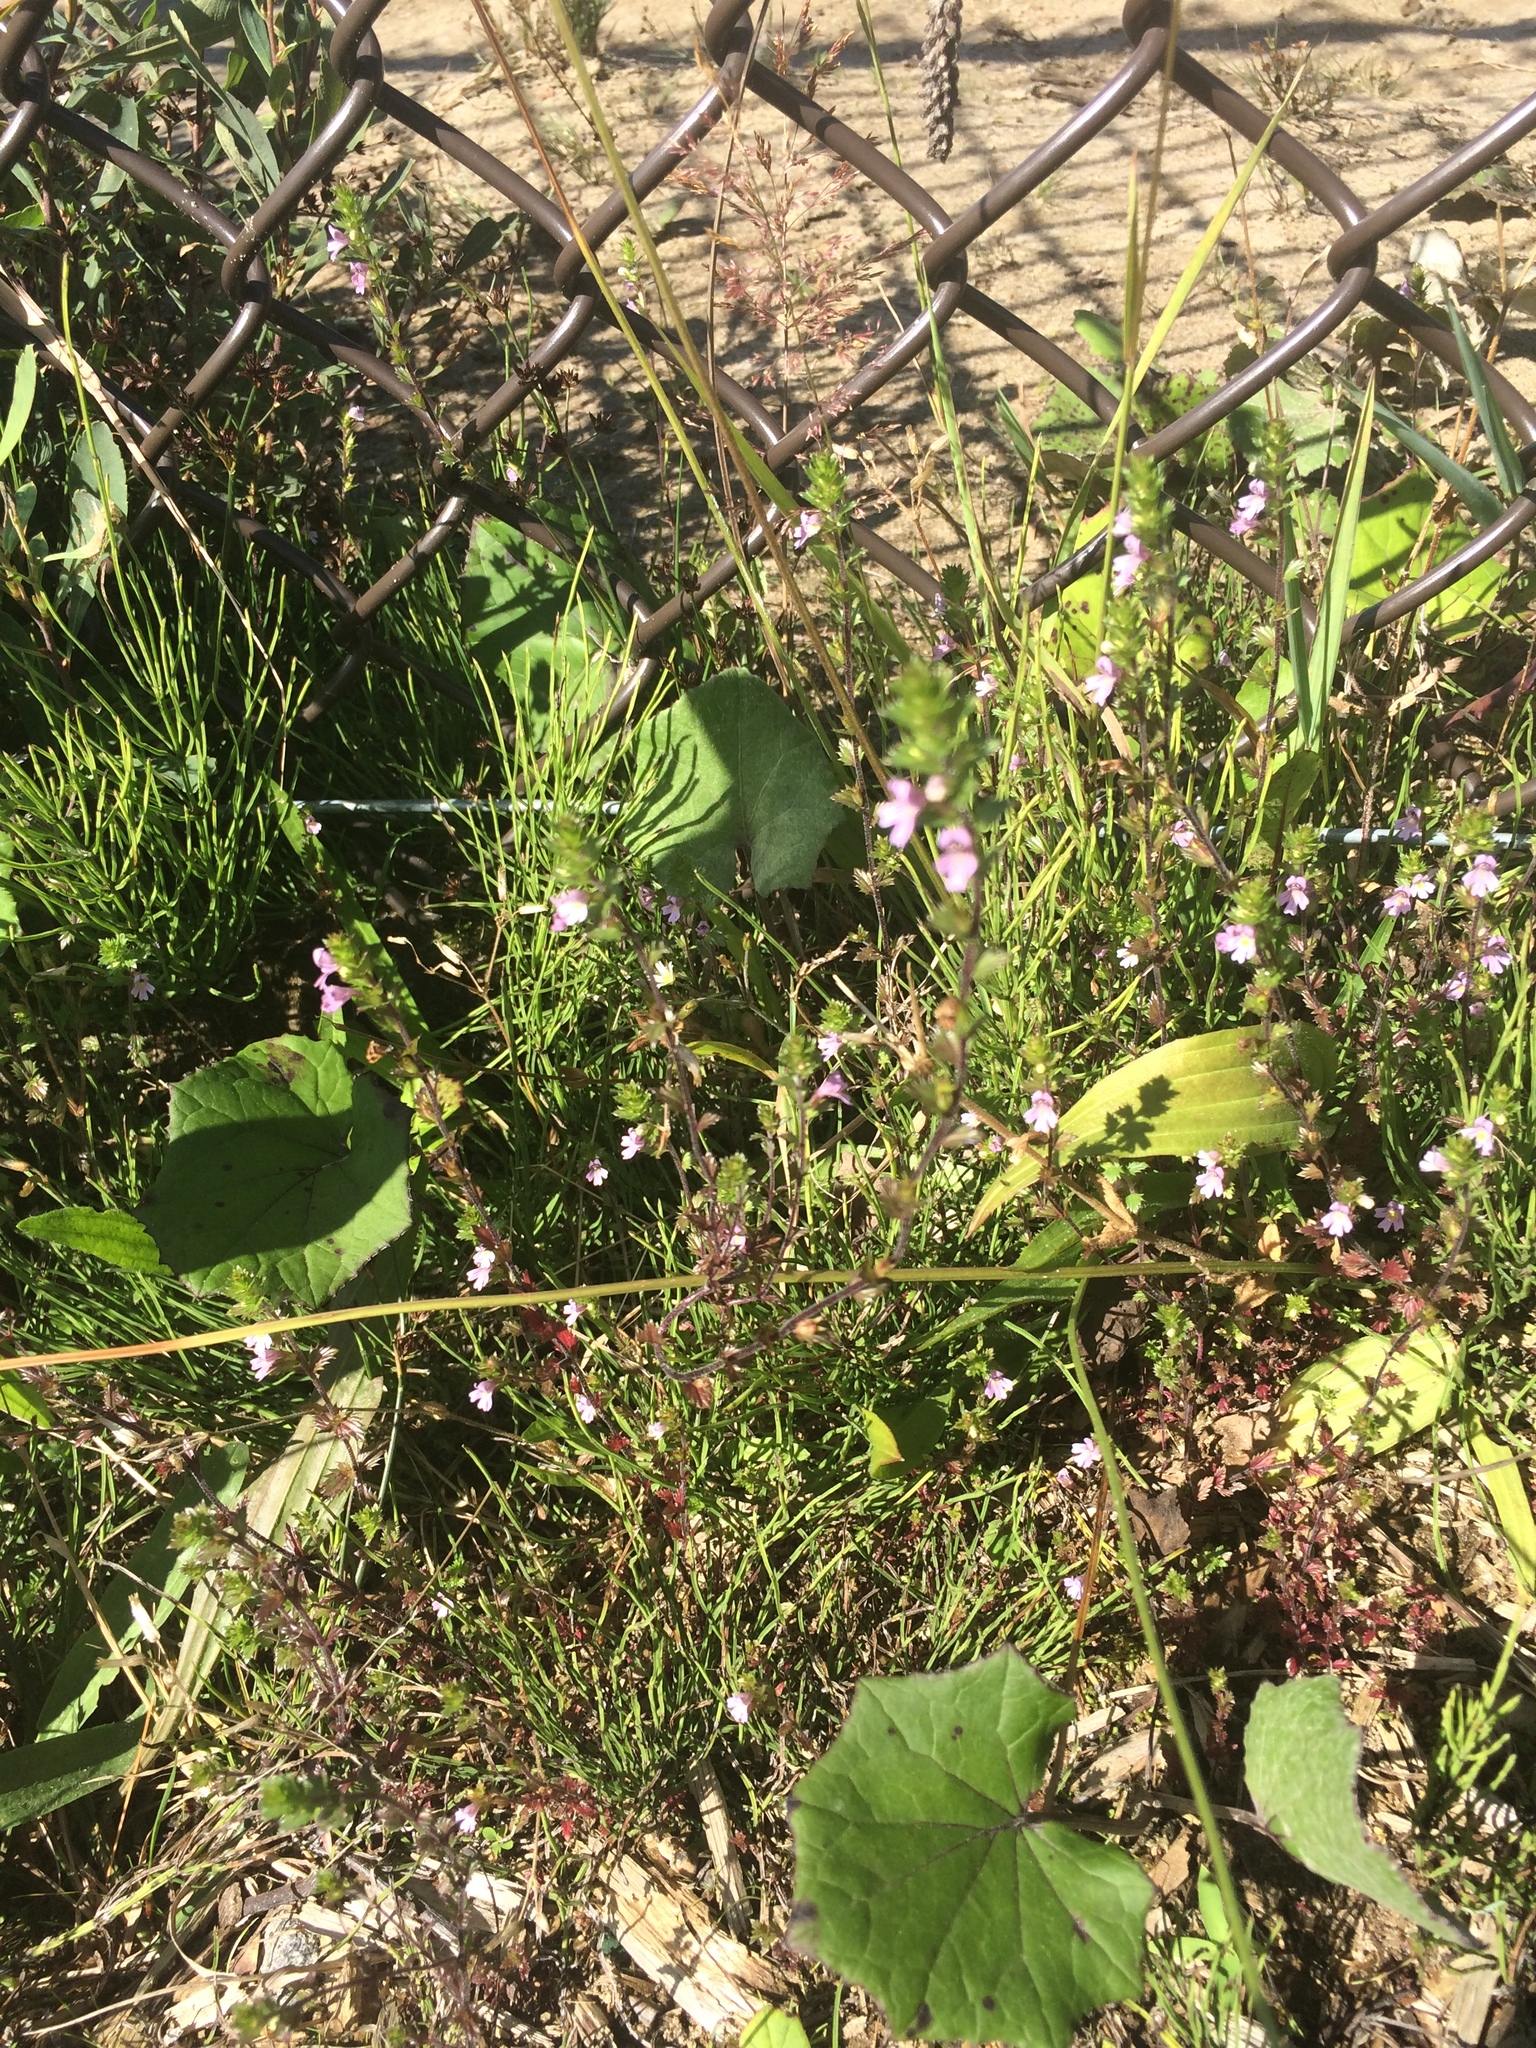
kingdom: Plantae
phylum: Tracheophyta
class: Magnoliopsida
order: Lamiales
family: Orobanchaceae
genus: Euphrasia
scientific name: Euphrasia nemorosa
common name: Common eyebright
